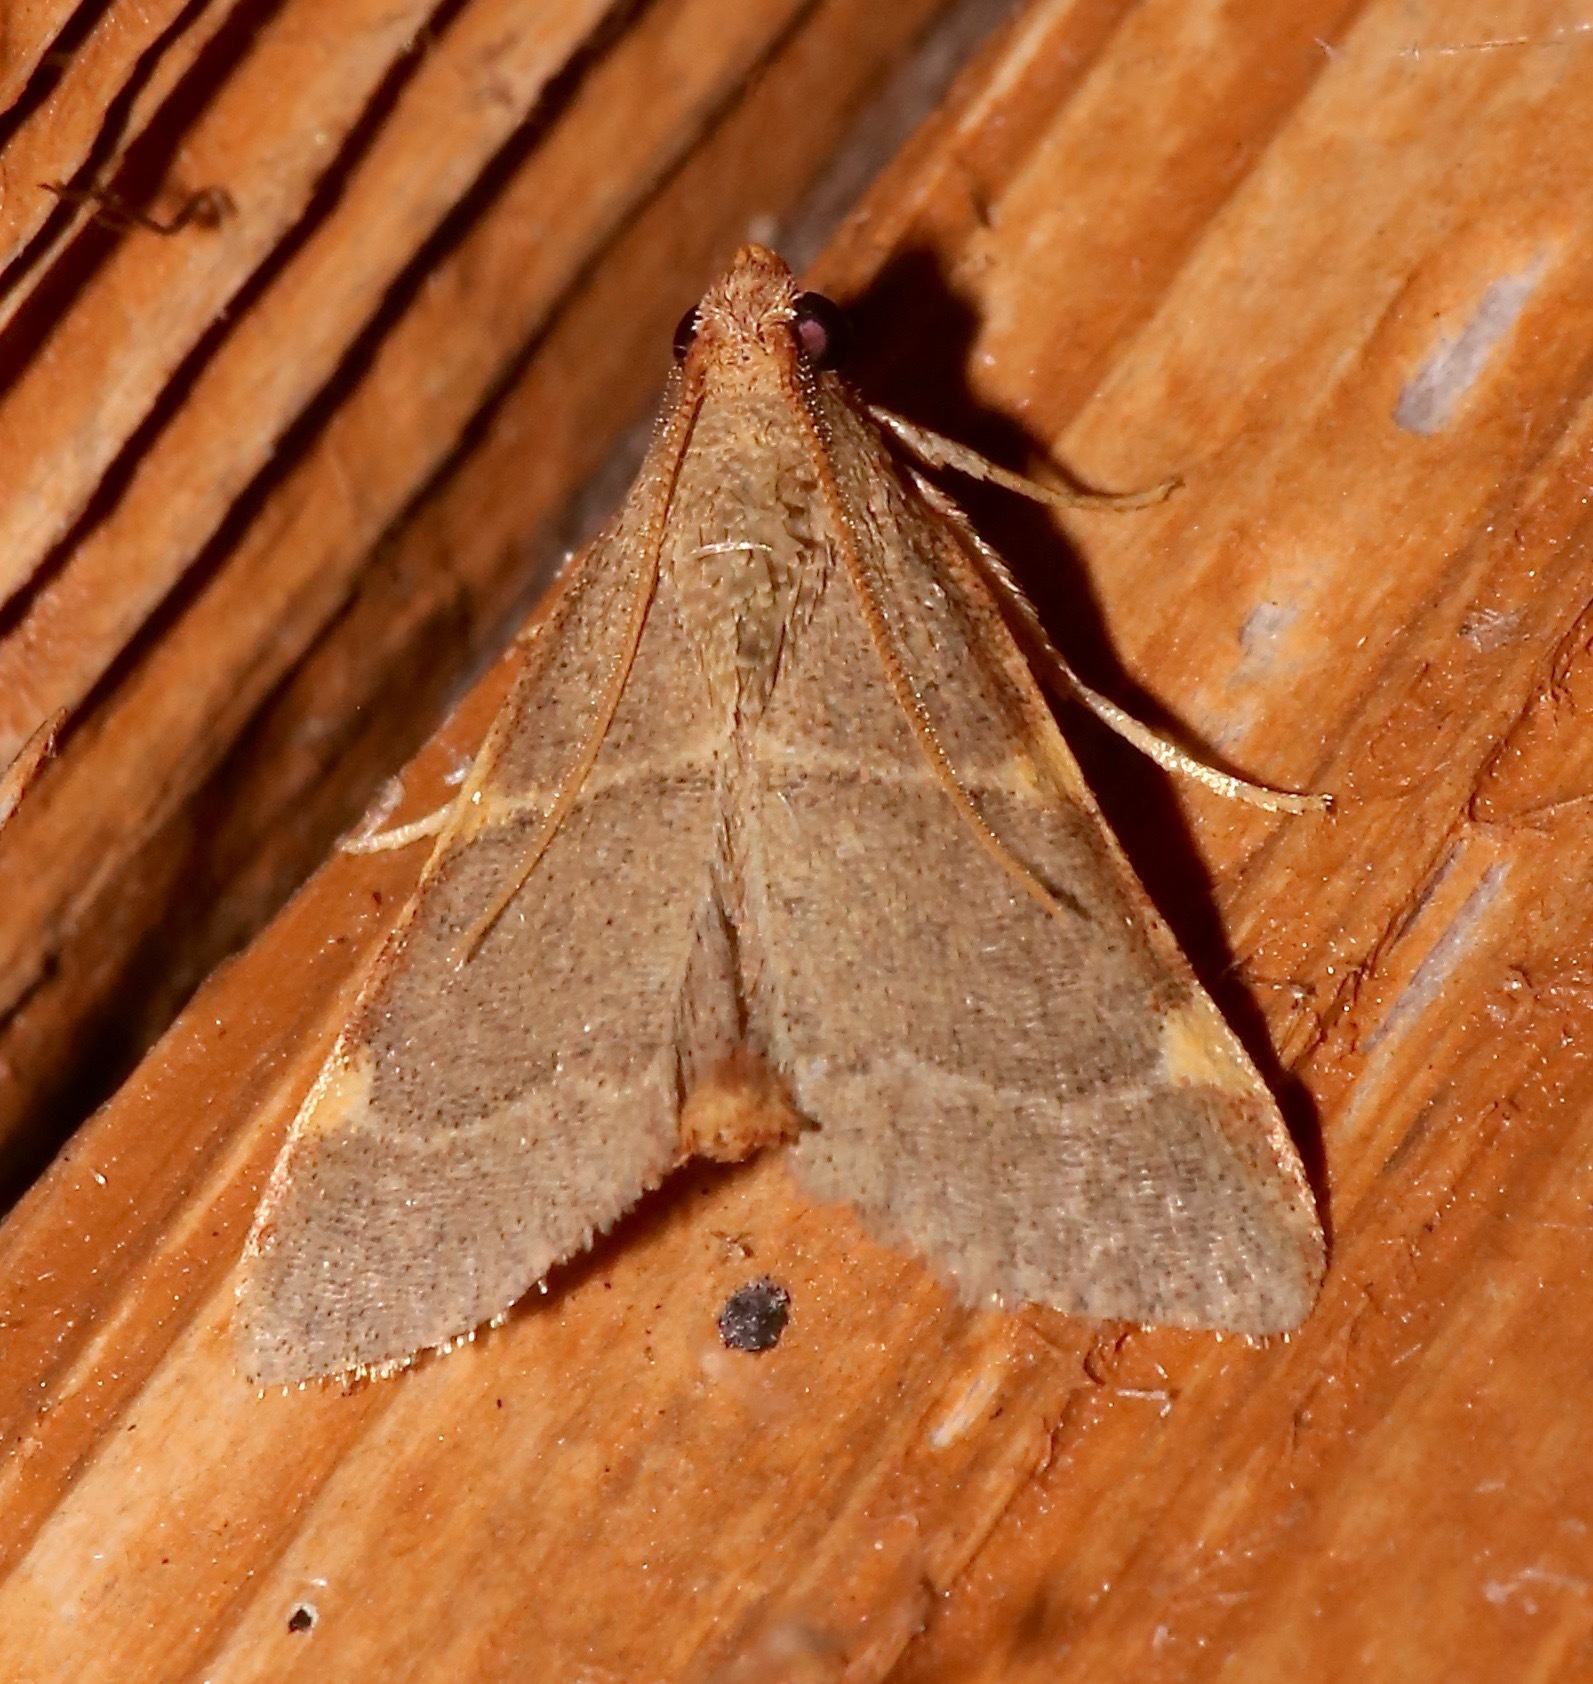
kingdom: Animalia
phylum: Arthropoda
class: Insecta
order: Lepidoptera
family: Pyralidae
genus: Hypsopygia
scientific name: Hypsopygia binodulalis
